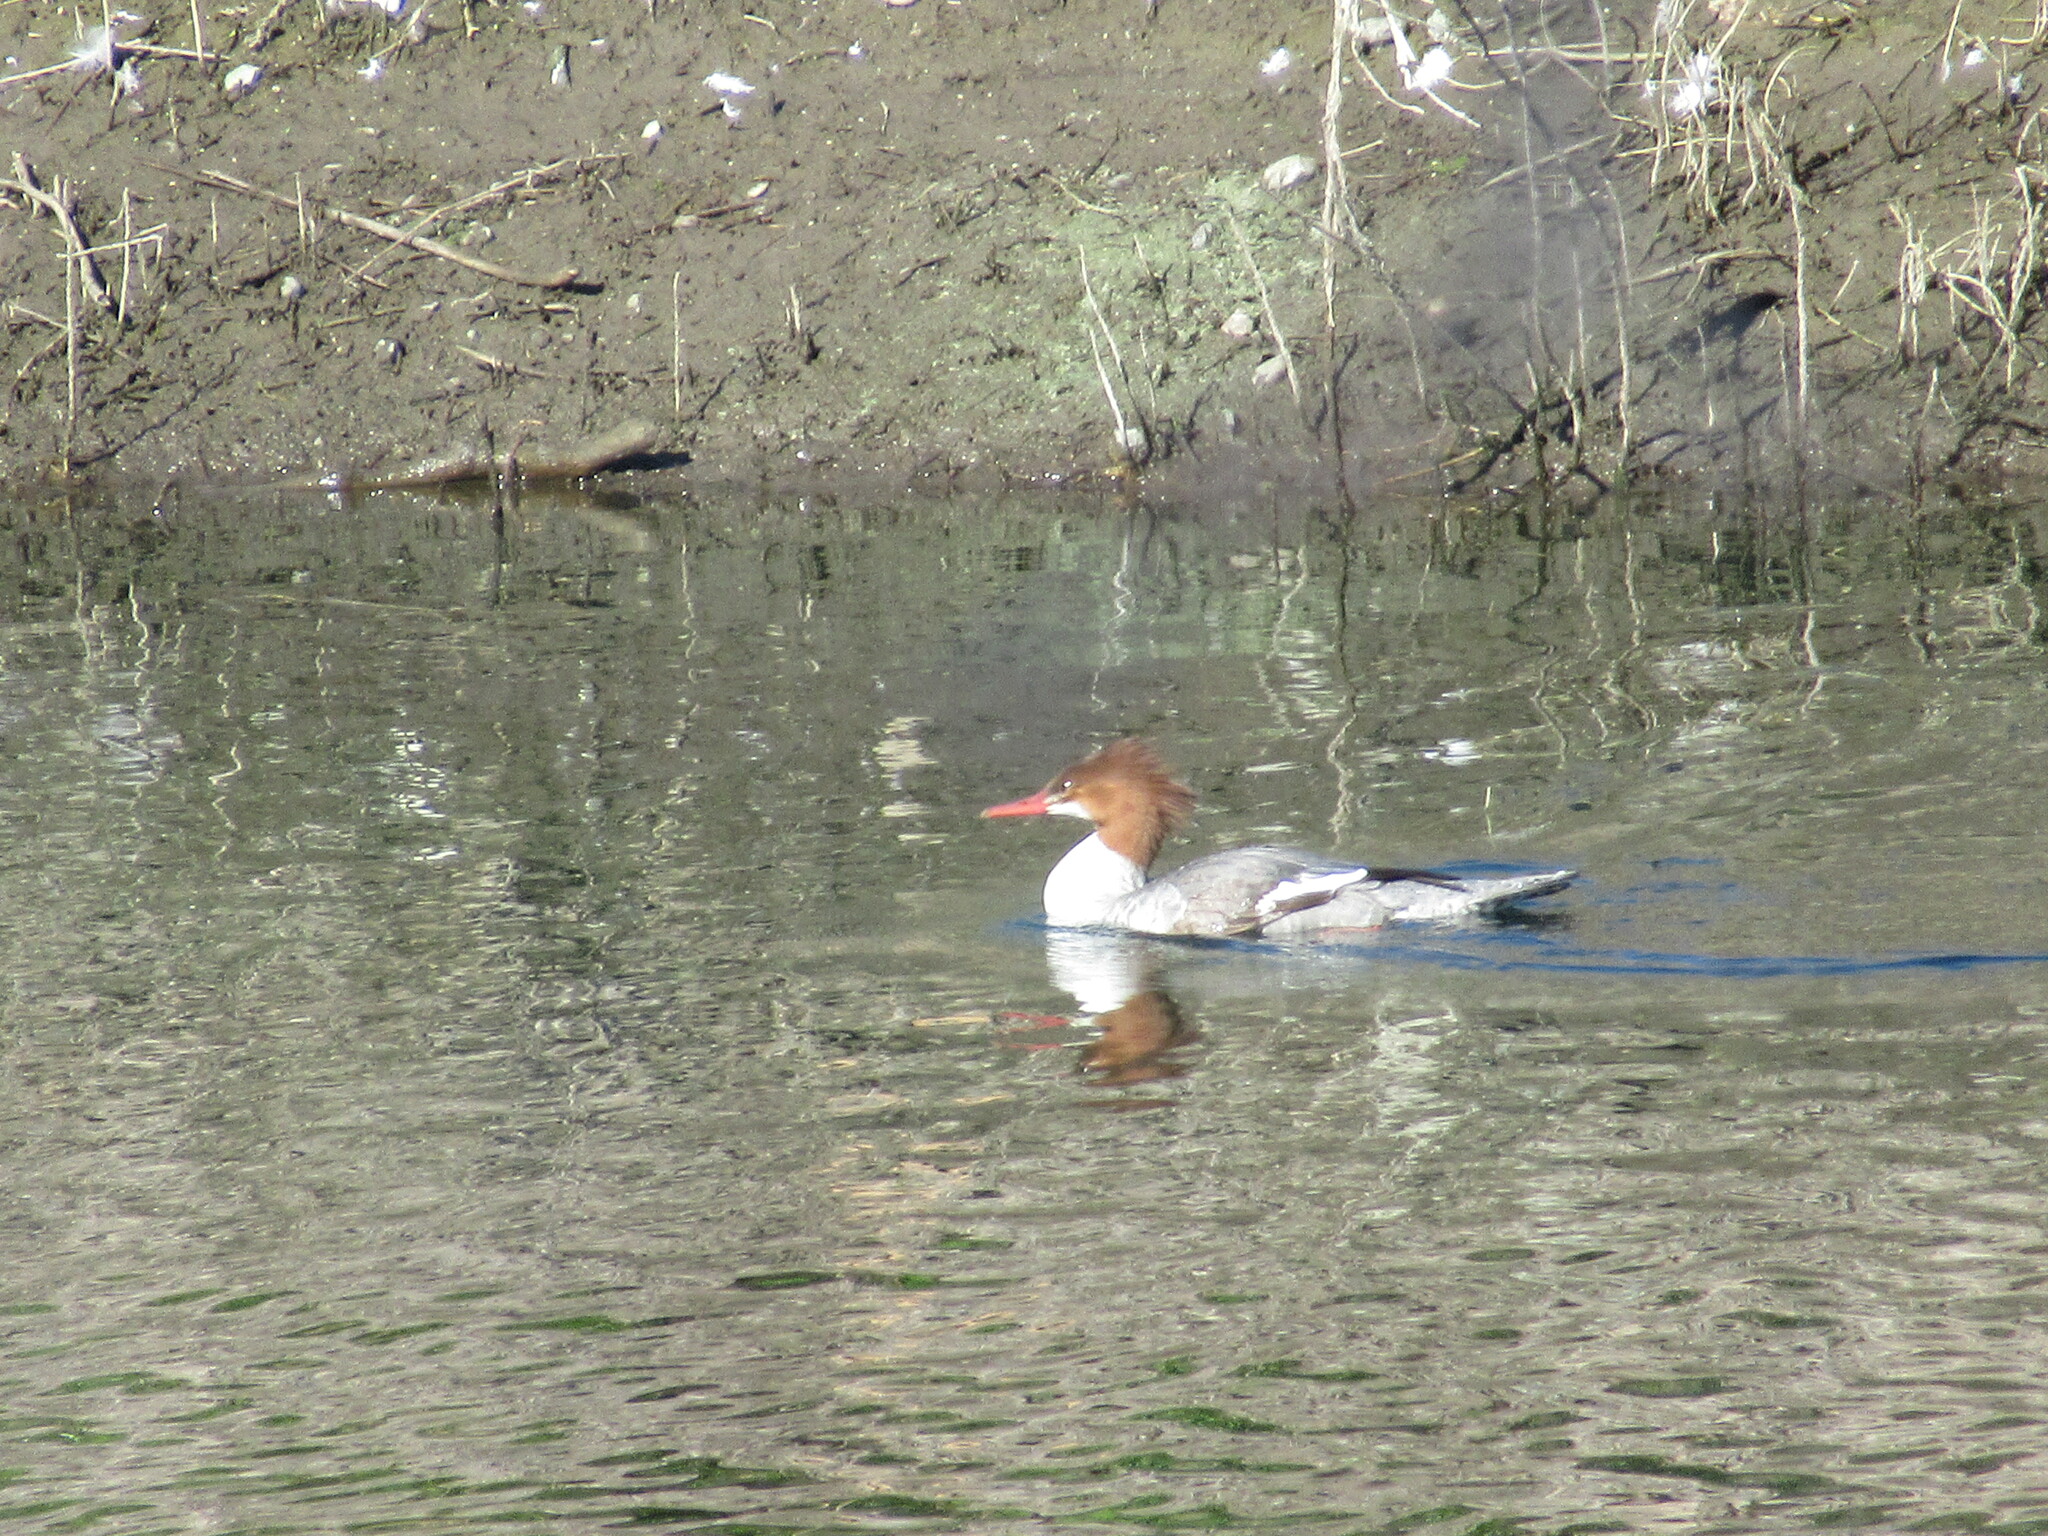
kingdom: Animalia
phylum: Chordata
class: Aves
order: Anseriformes
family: Anatidae
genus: Mergus
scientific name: Mergus merganser
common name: Common merganser
